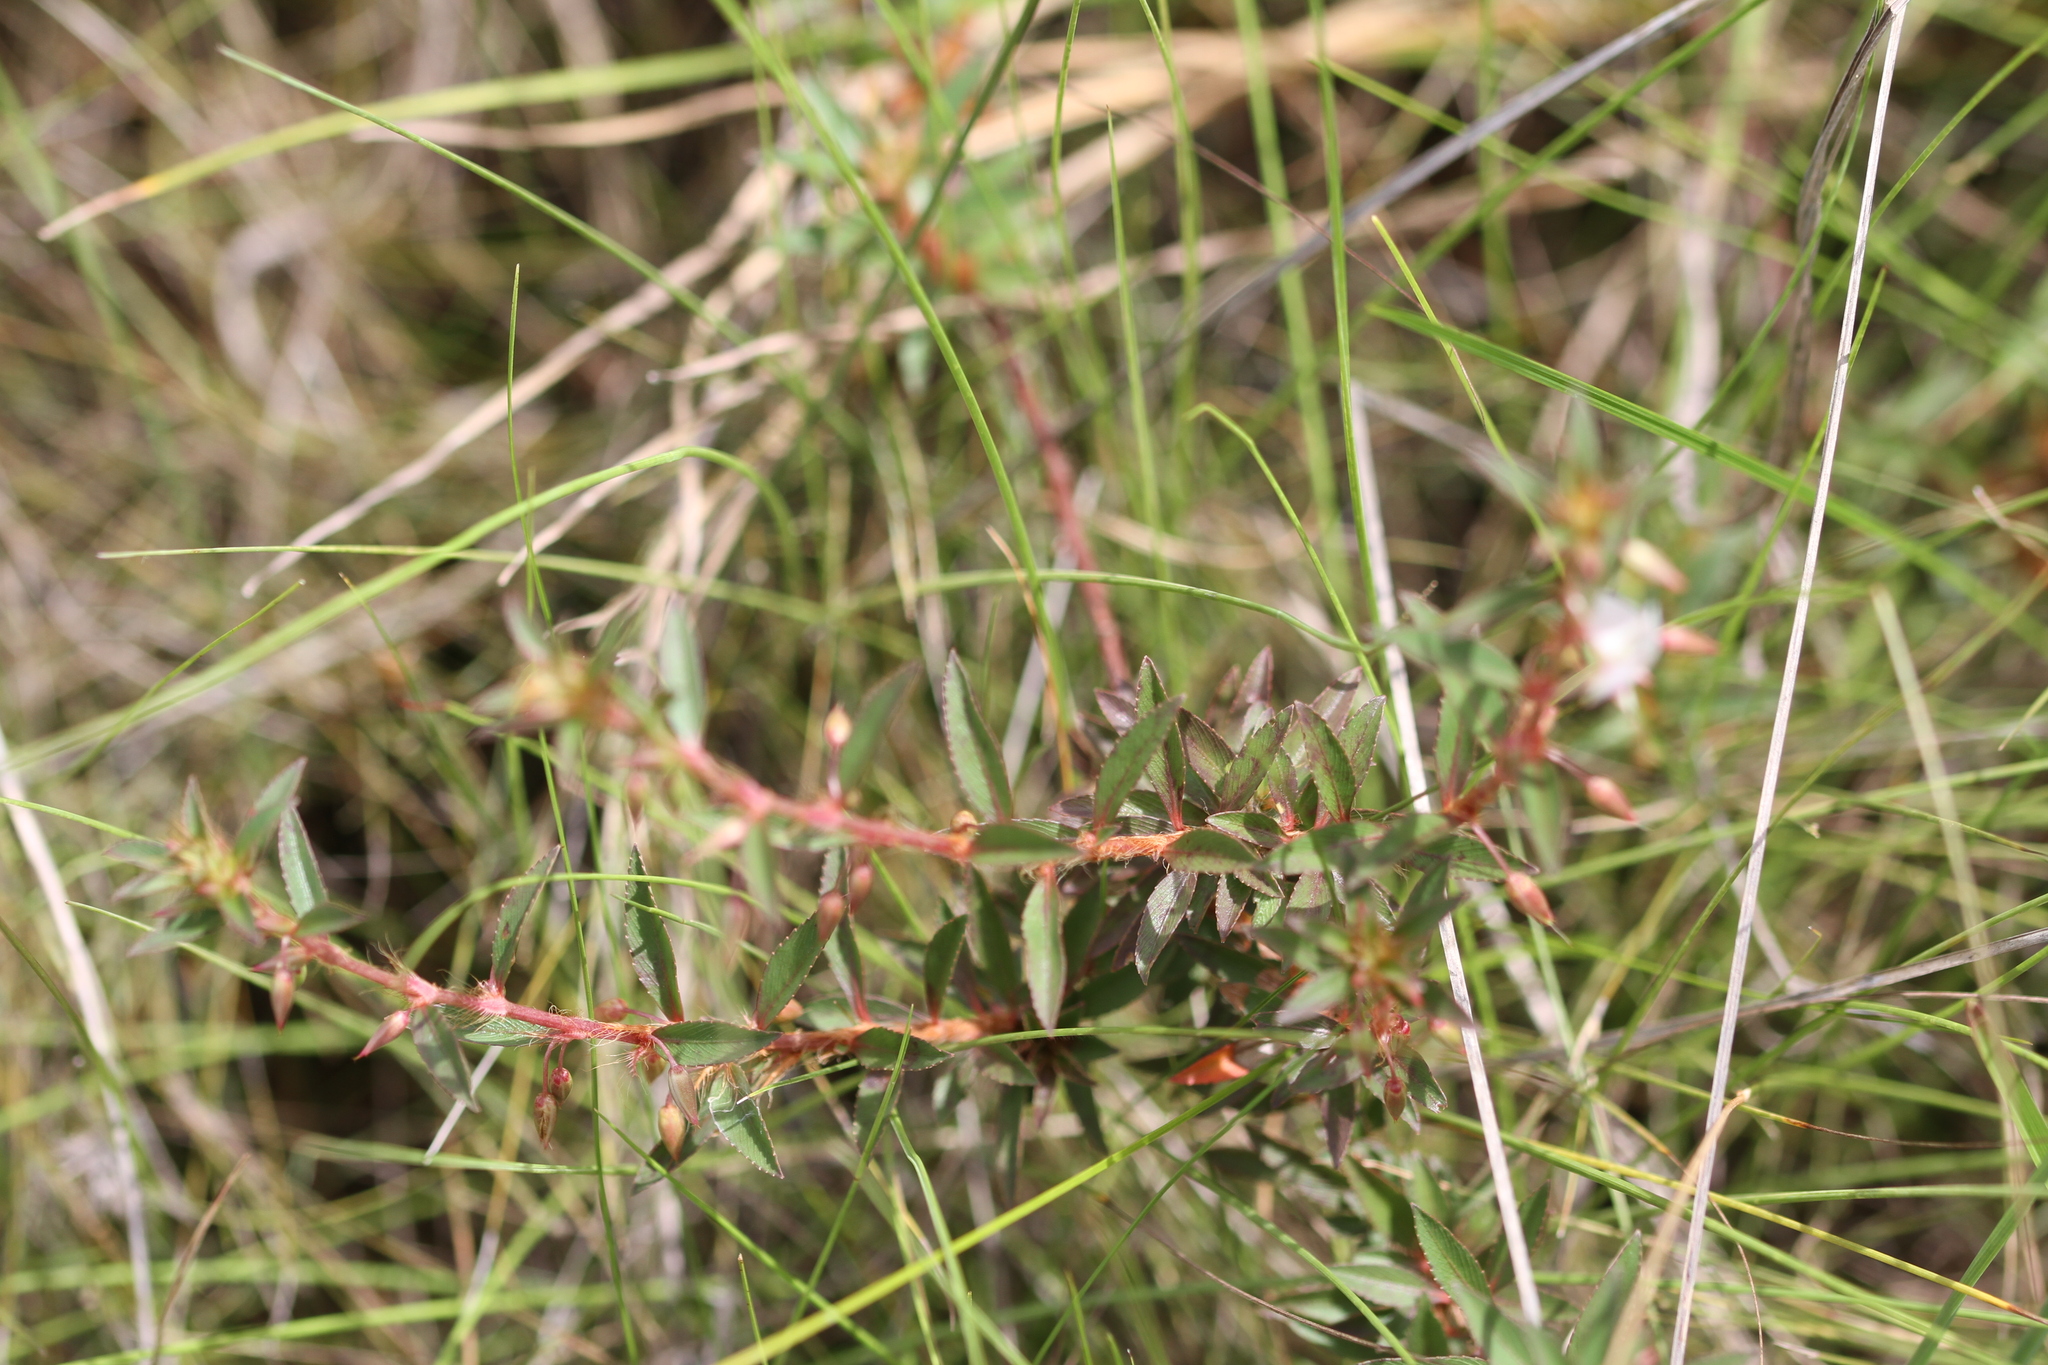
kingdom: Plantae
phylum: Tracheophyta
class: Magnoliopsida
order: Malpighiales
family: Ochnaceae
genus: Sauvagesia
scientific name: Sauvagesia erecta
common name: Creole tea
